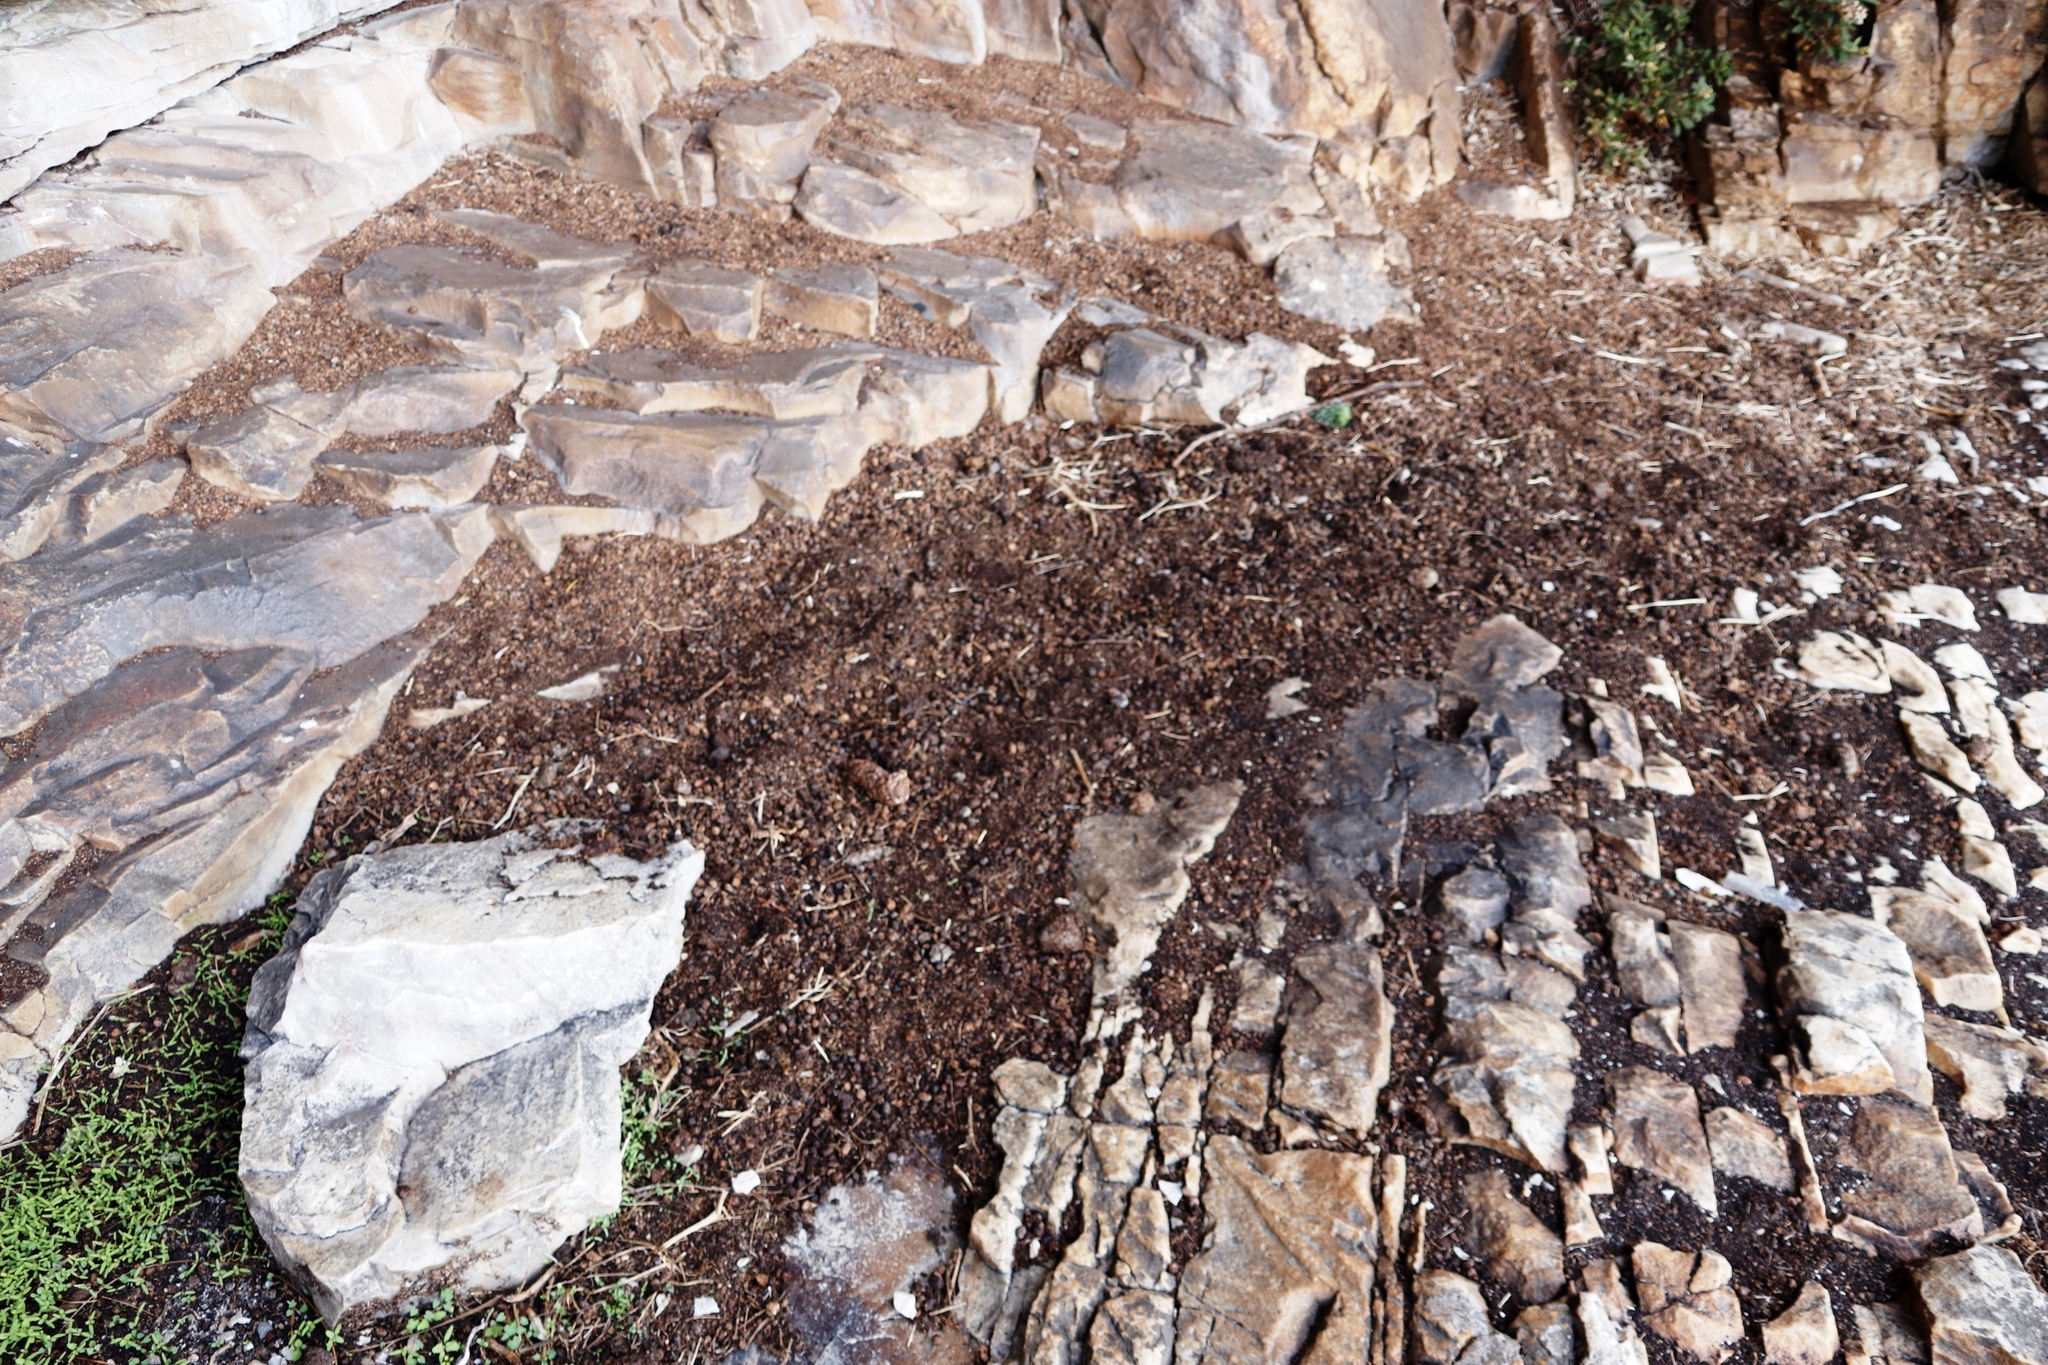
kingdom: Animalia
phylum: Chordata
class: Mammalia
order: Hyracoidea
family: Procaviidae
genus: Procavia
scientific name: Procavia capensis
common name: Rock hyrax
